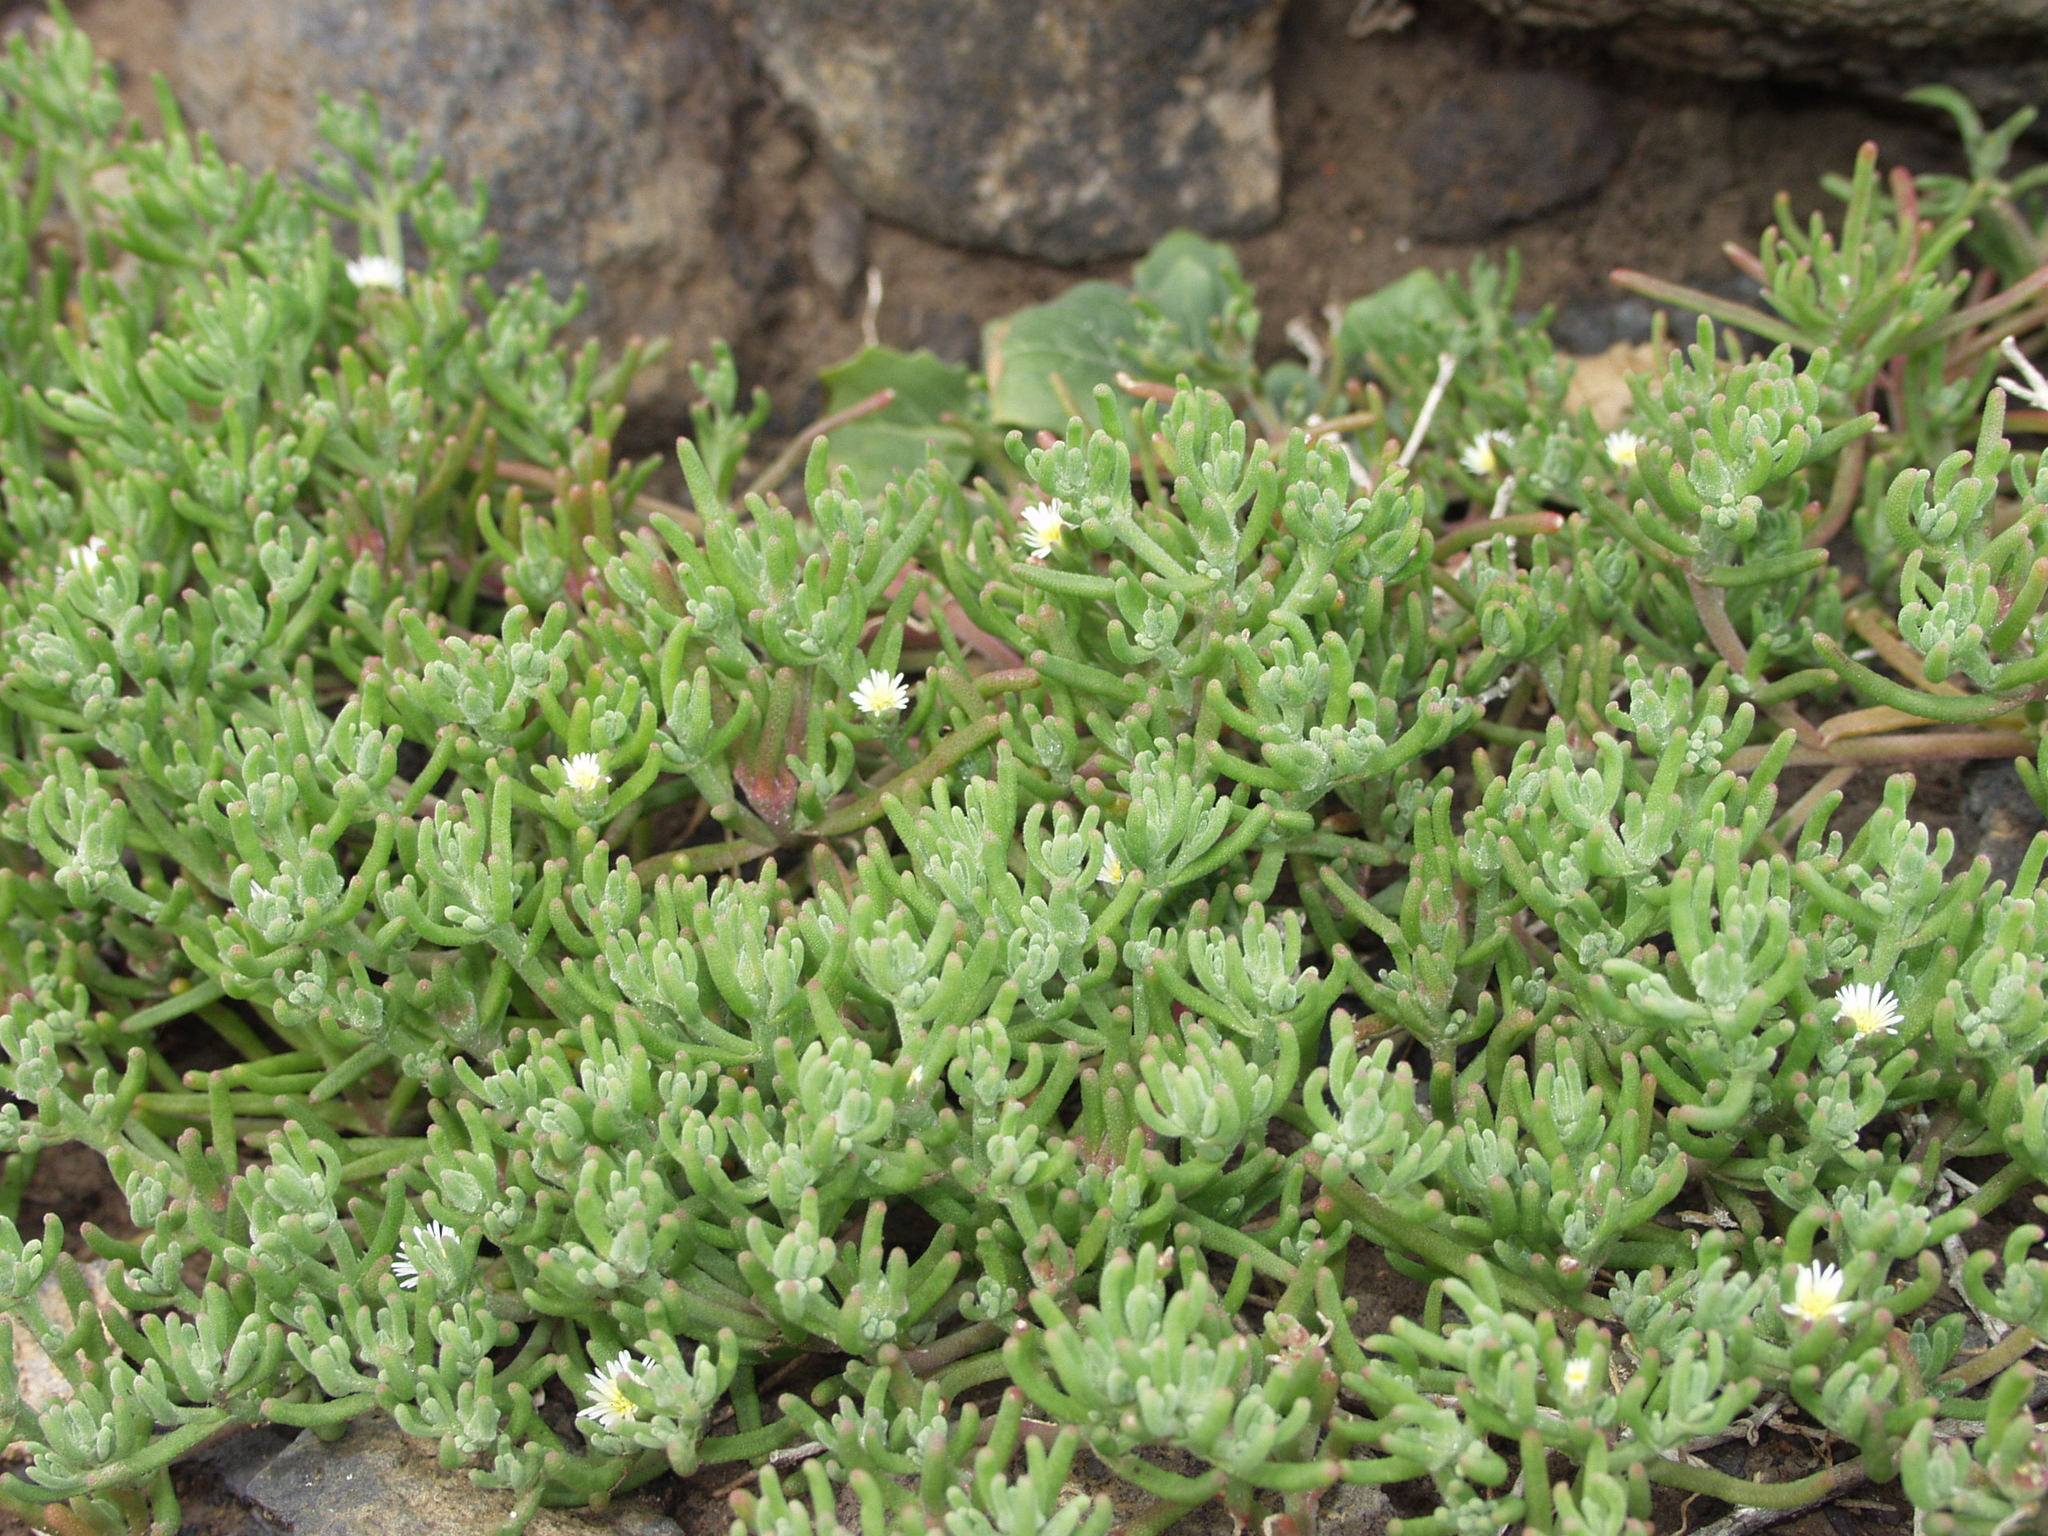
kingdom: Plantae
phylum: Tracheophyta
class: Magnoliopsida
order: Caryophyllales
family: Aizoaceae
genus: Mesembryanthemum
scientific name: Mesembryanthemum nodiflorum
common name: Slenderleaf iceplant
